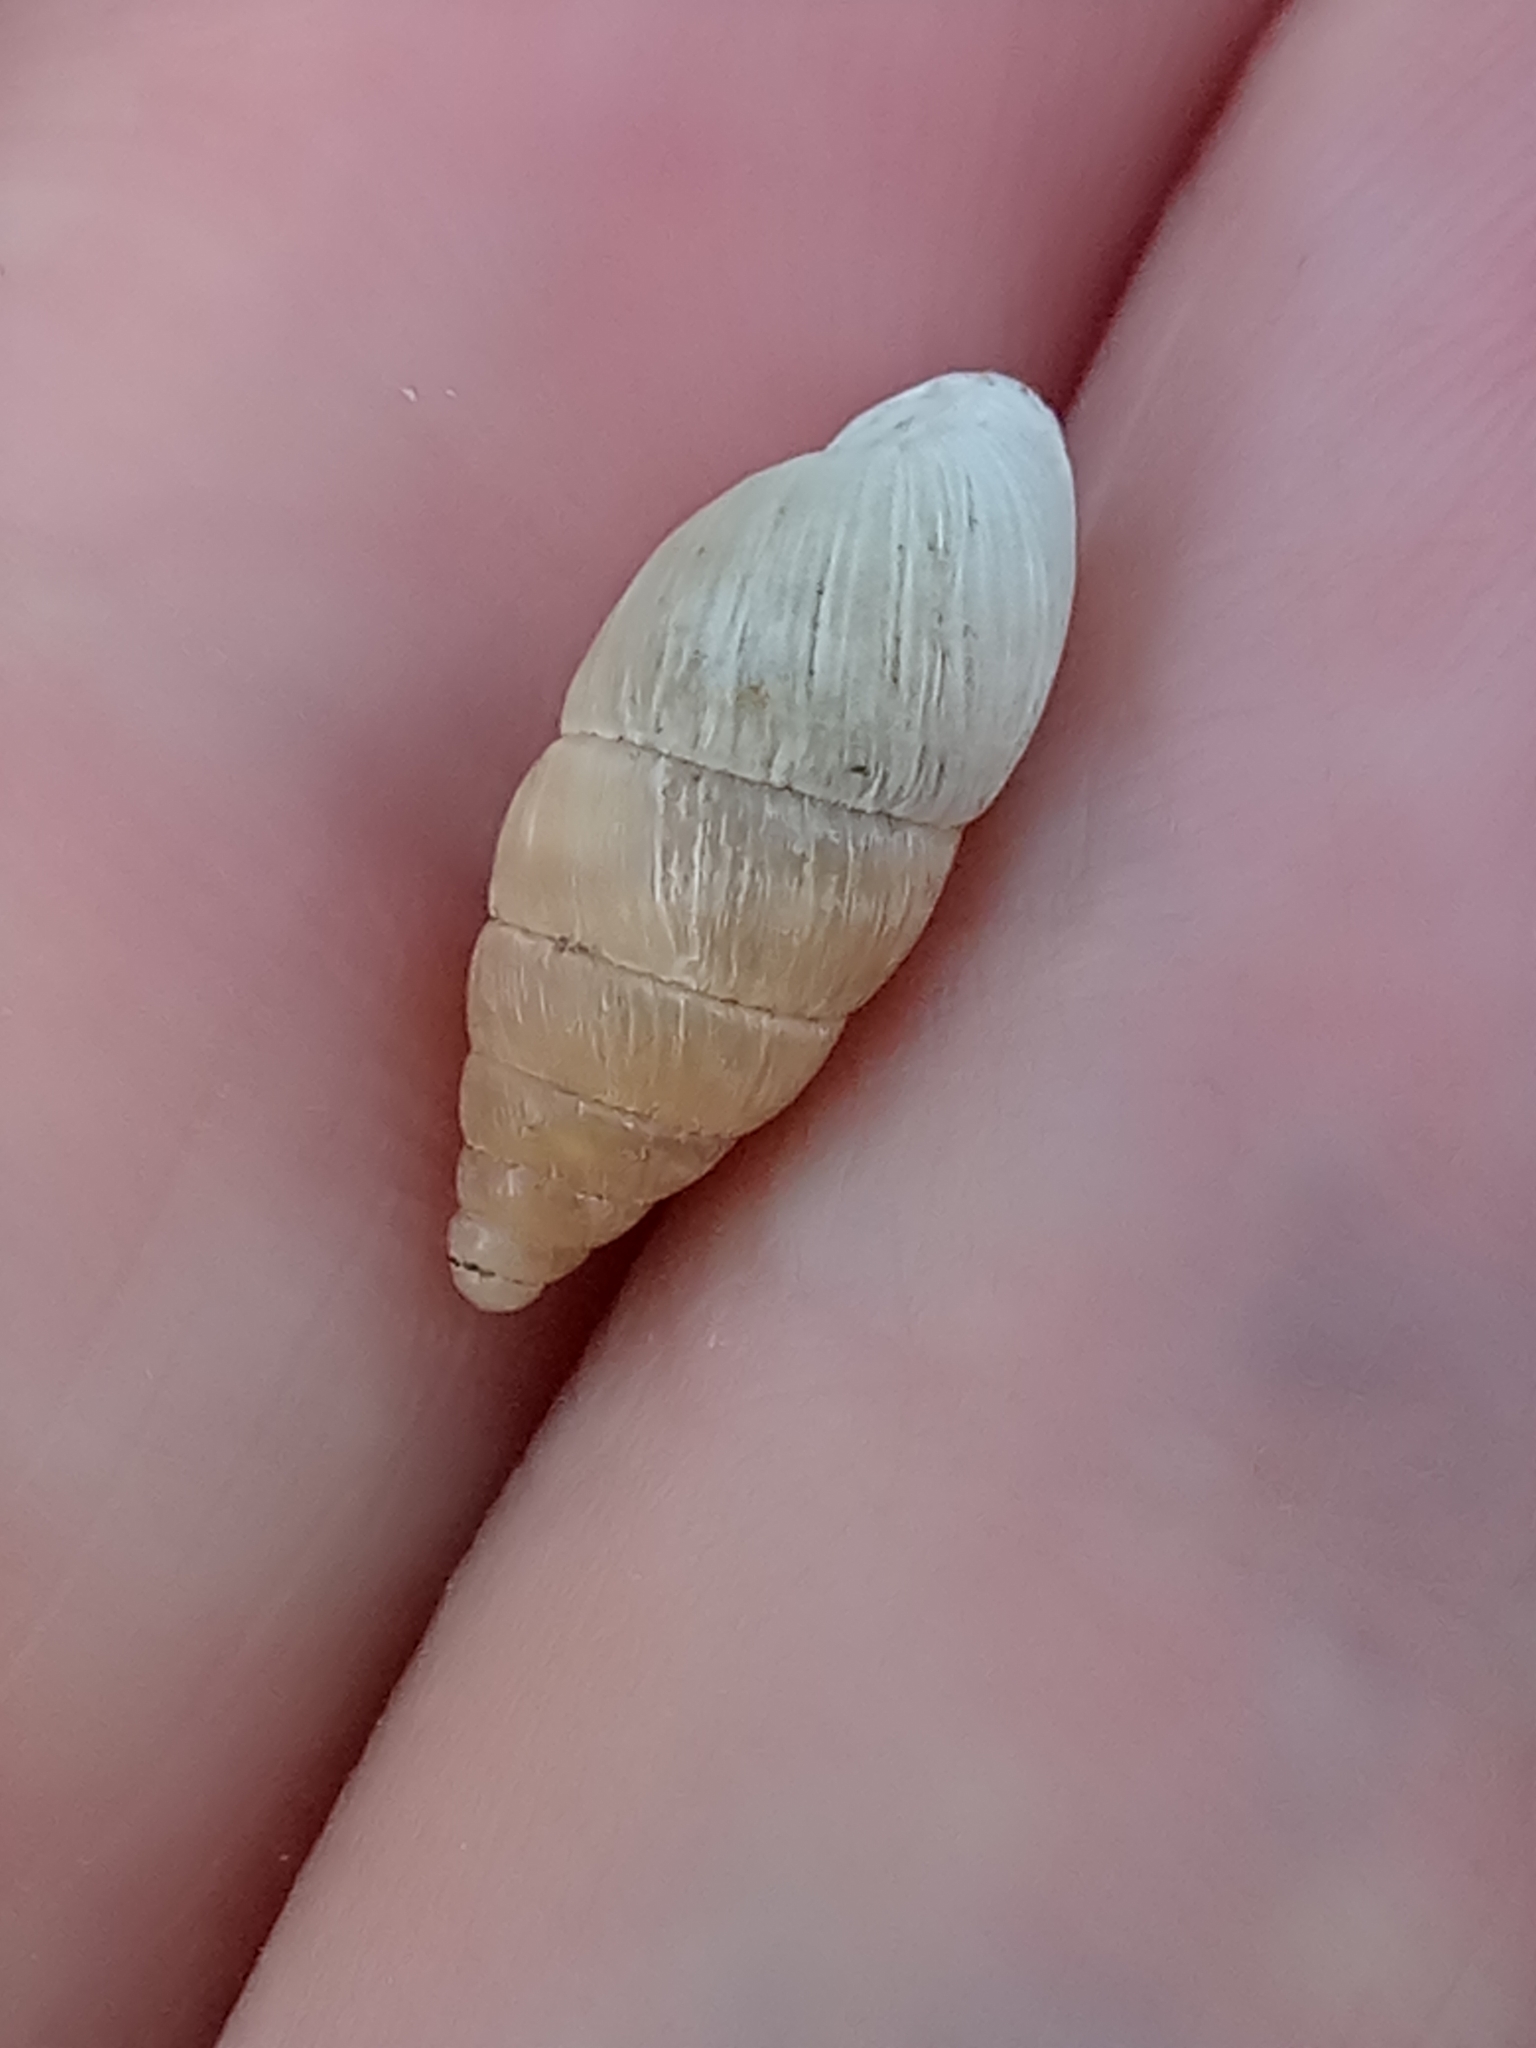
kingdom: Animalia
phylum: Mollusca
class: Gastropoda
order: Stylommatophora
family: Enidae
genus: Mastus
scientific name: Mastus pupa
